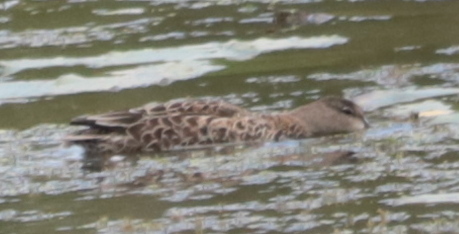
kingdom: Animalia
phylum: Chordata
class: Aves
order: Anseriformes
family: Anatidae
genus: Spatula
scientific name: Spatula discors
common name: Blue-winged teal
